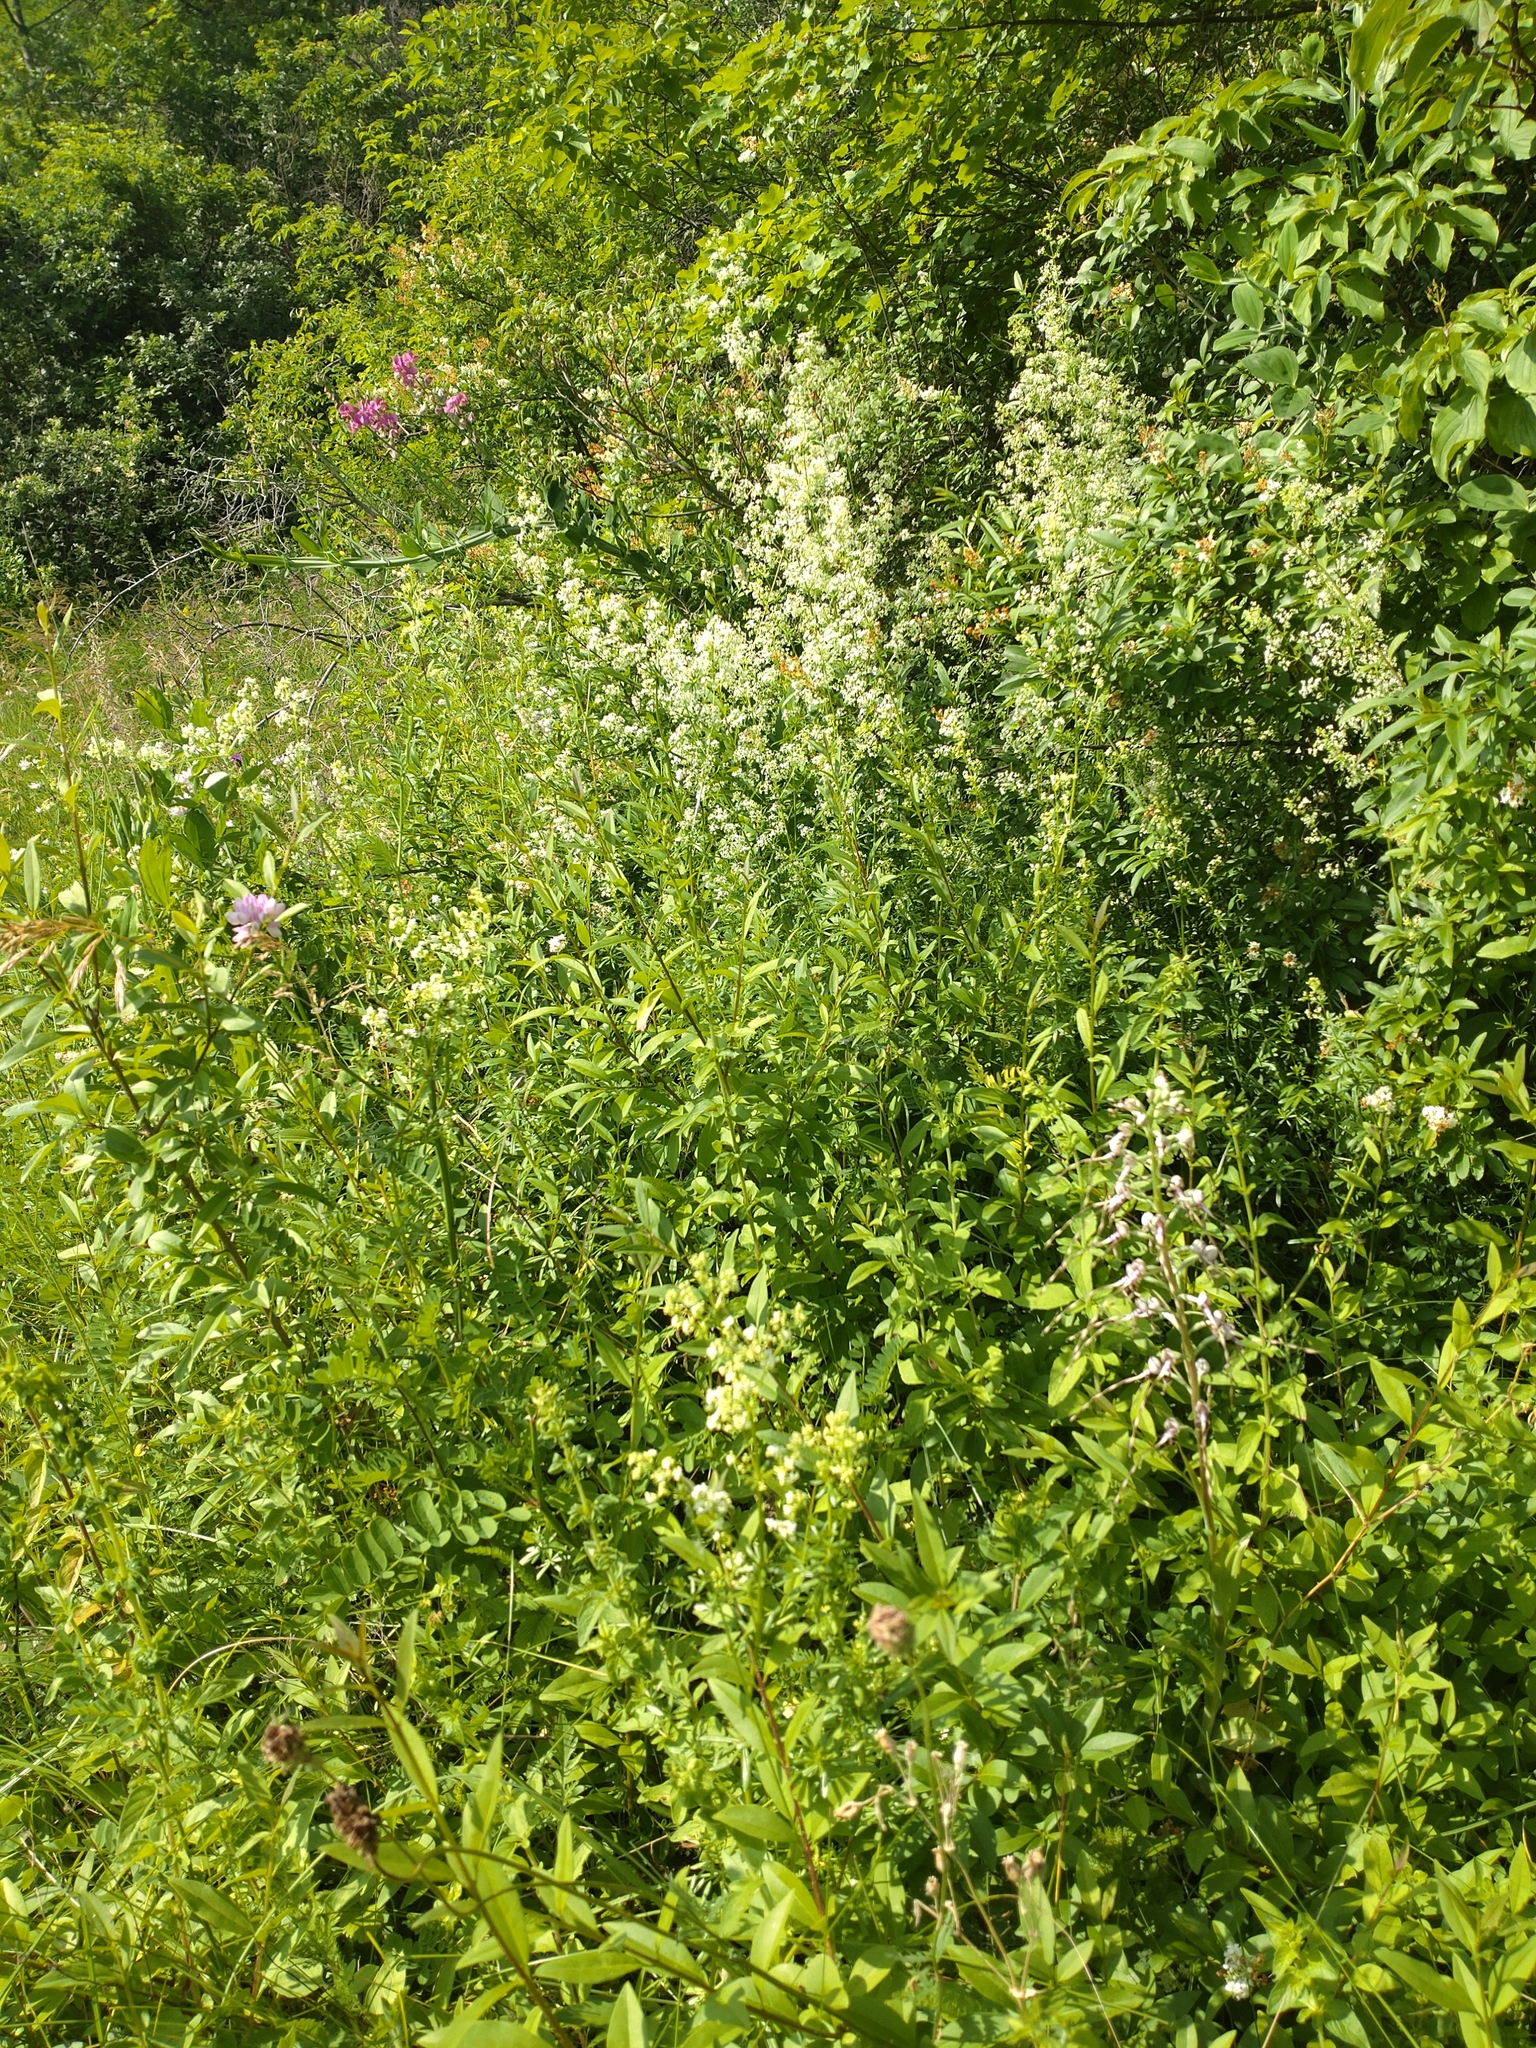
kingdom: Plantae
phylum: Tracheophyta
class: Liliopsida
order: Asparagales
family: Orchidaceae
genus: Himantoglossum
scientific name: Himantoglossum adriaticum
